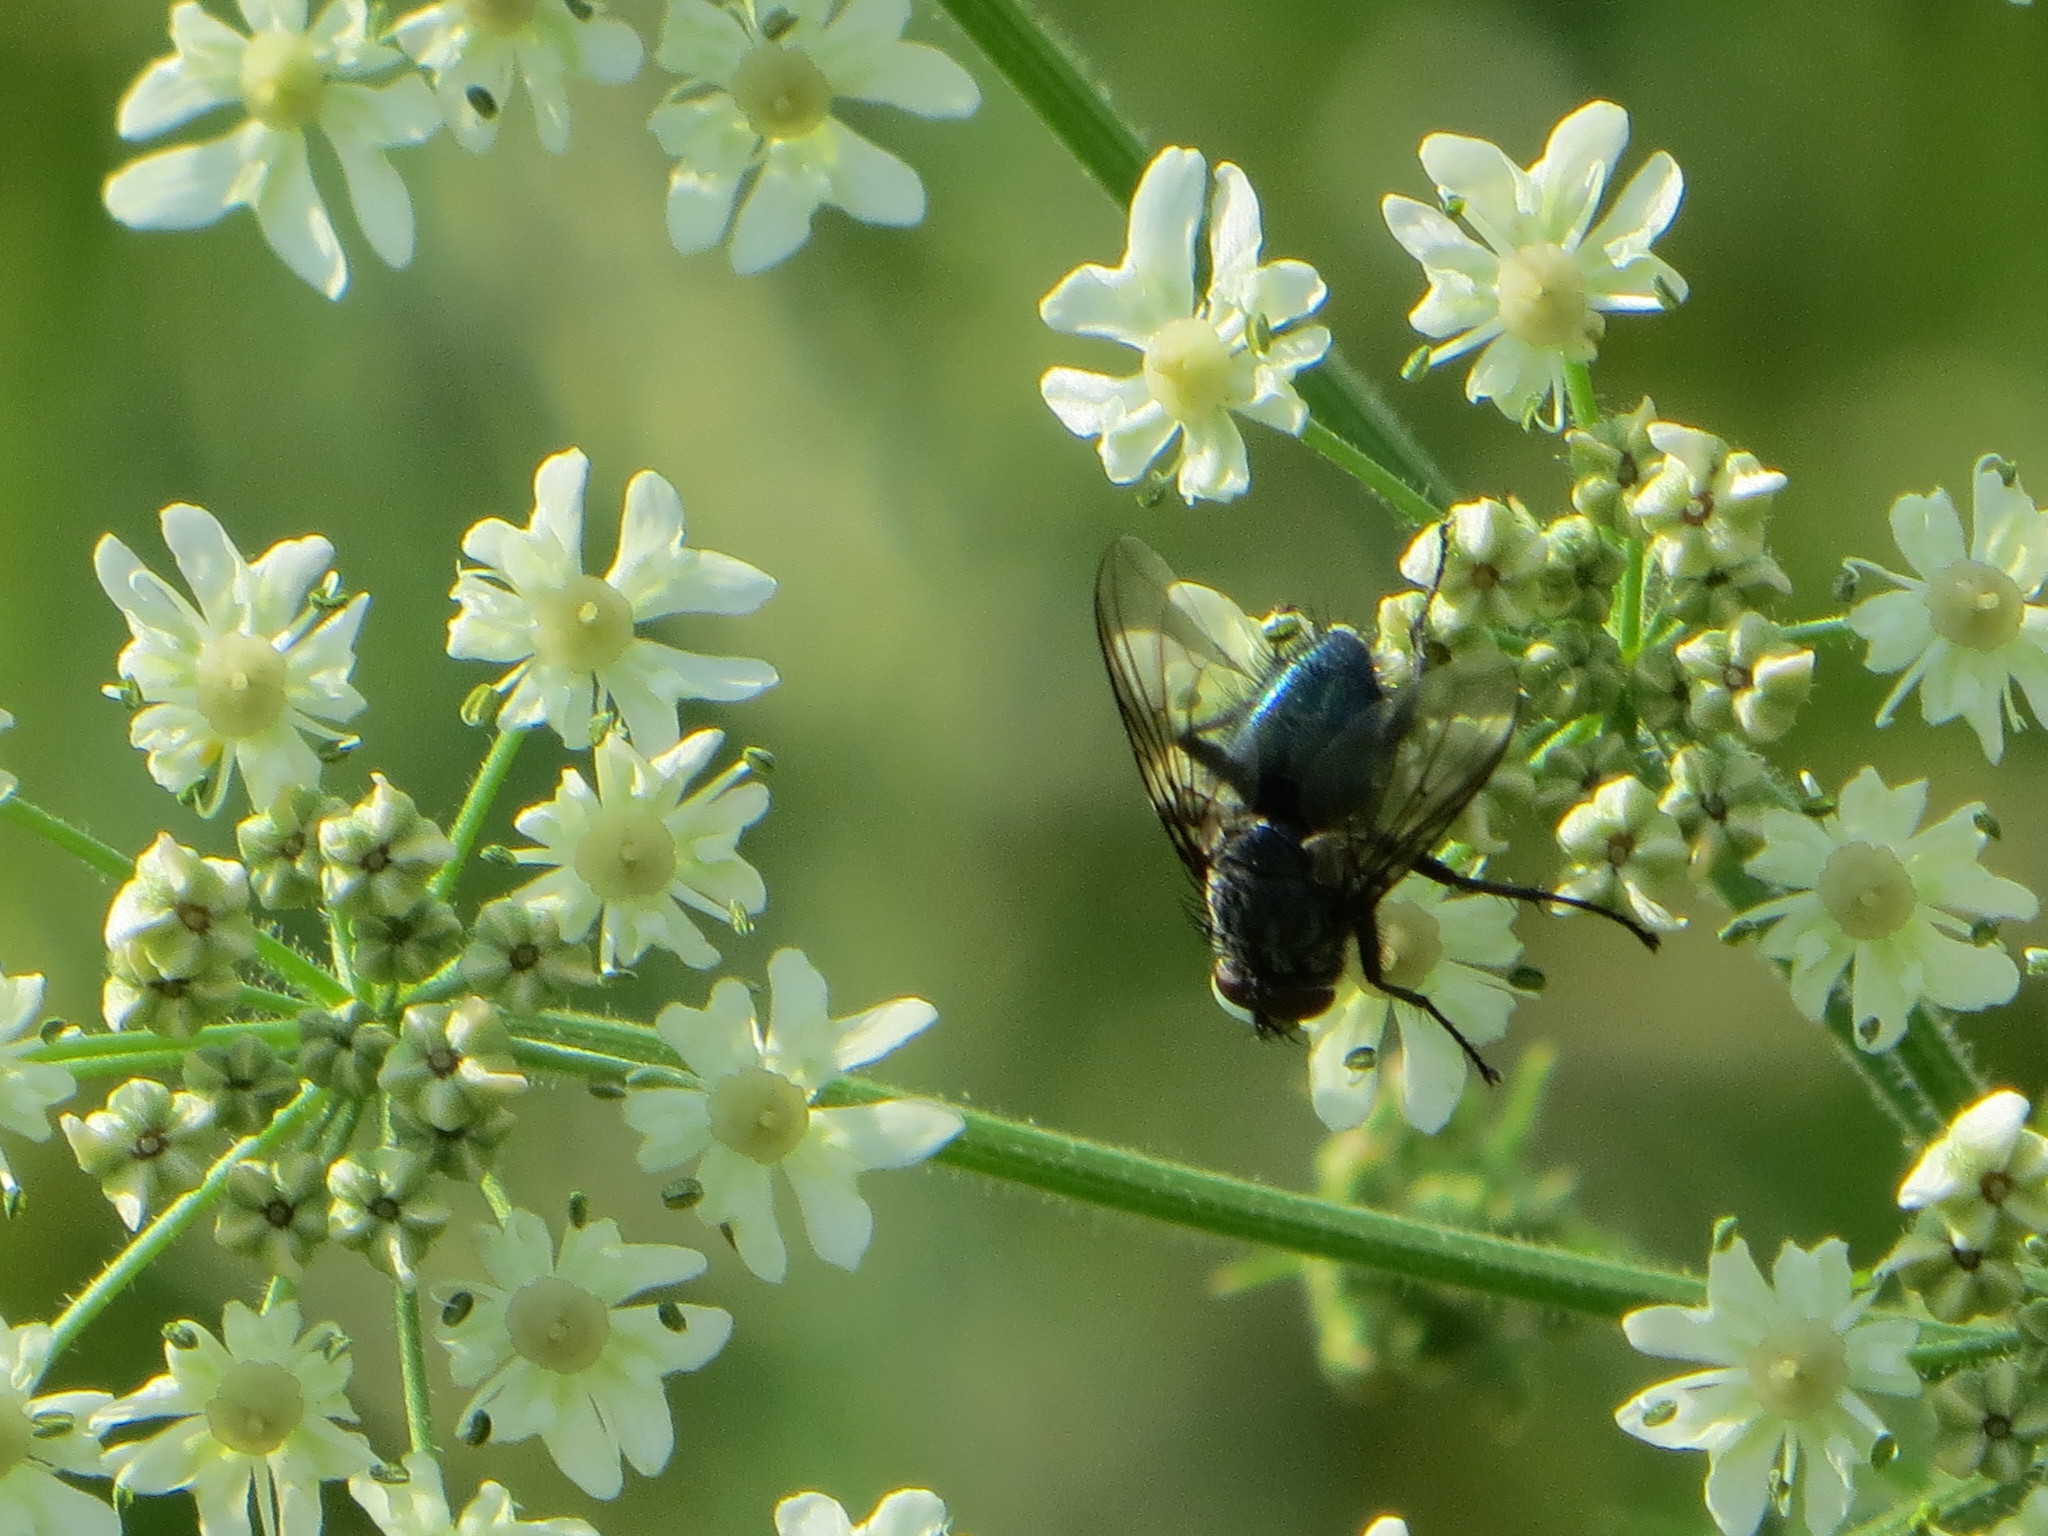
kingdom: Animalia
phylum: Arthropoda
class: Insecta
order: Diptera
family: Calliphoridae
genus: Bellardia
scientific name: Bellardia vulgaris
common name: Pale-veined emerald-bottle fly
